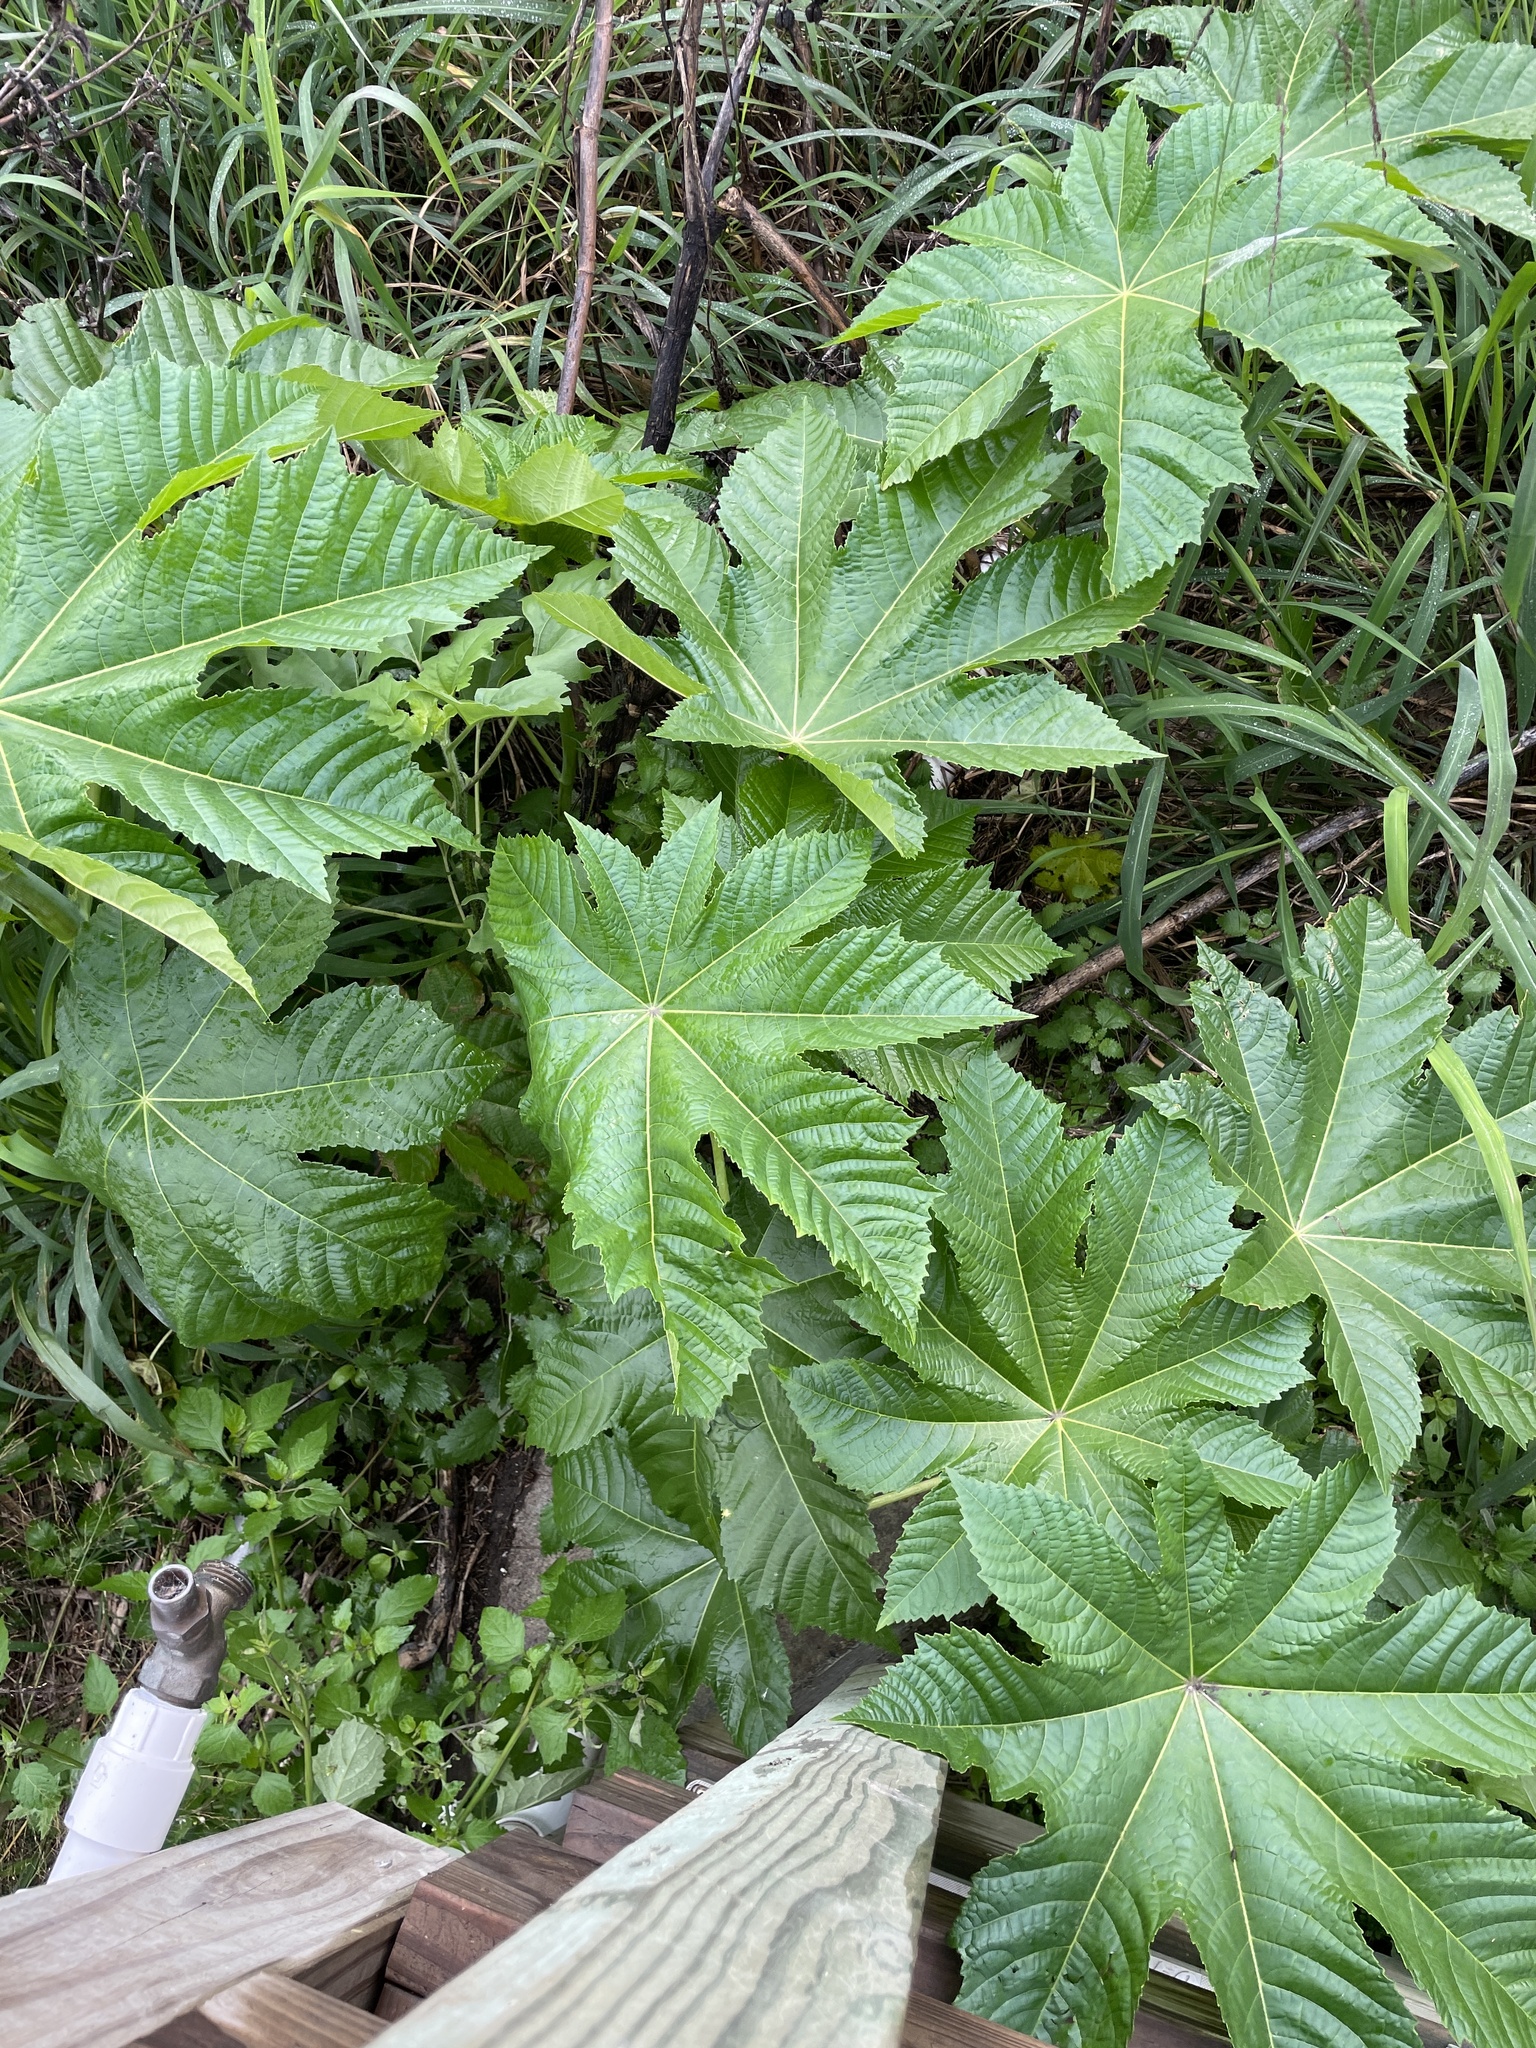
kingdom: Plantae
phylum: Tracheophyta
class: Magnoliopsida
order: Malpighiales
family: Euphorbiaceae
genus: Ricinus
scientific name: Ricinus communis
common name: Castor-oil-plant
